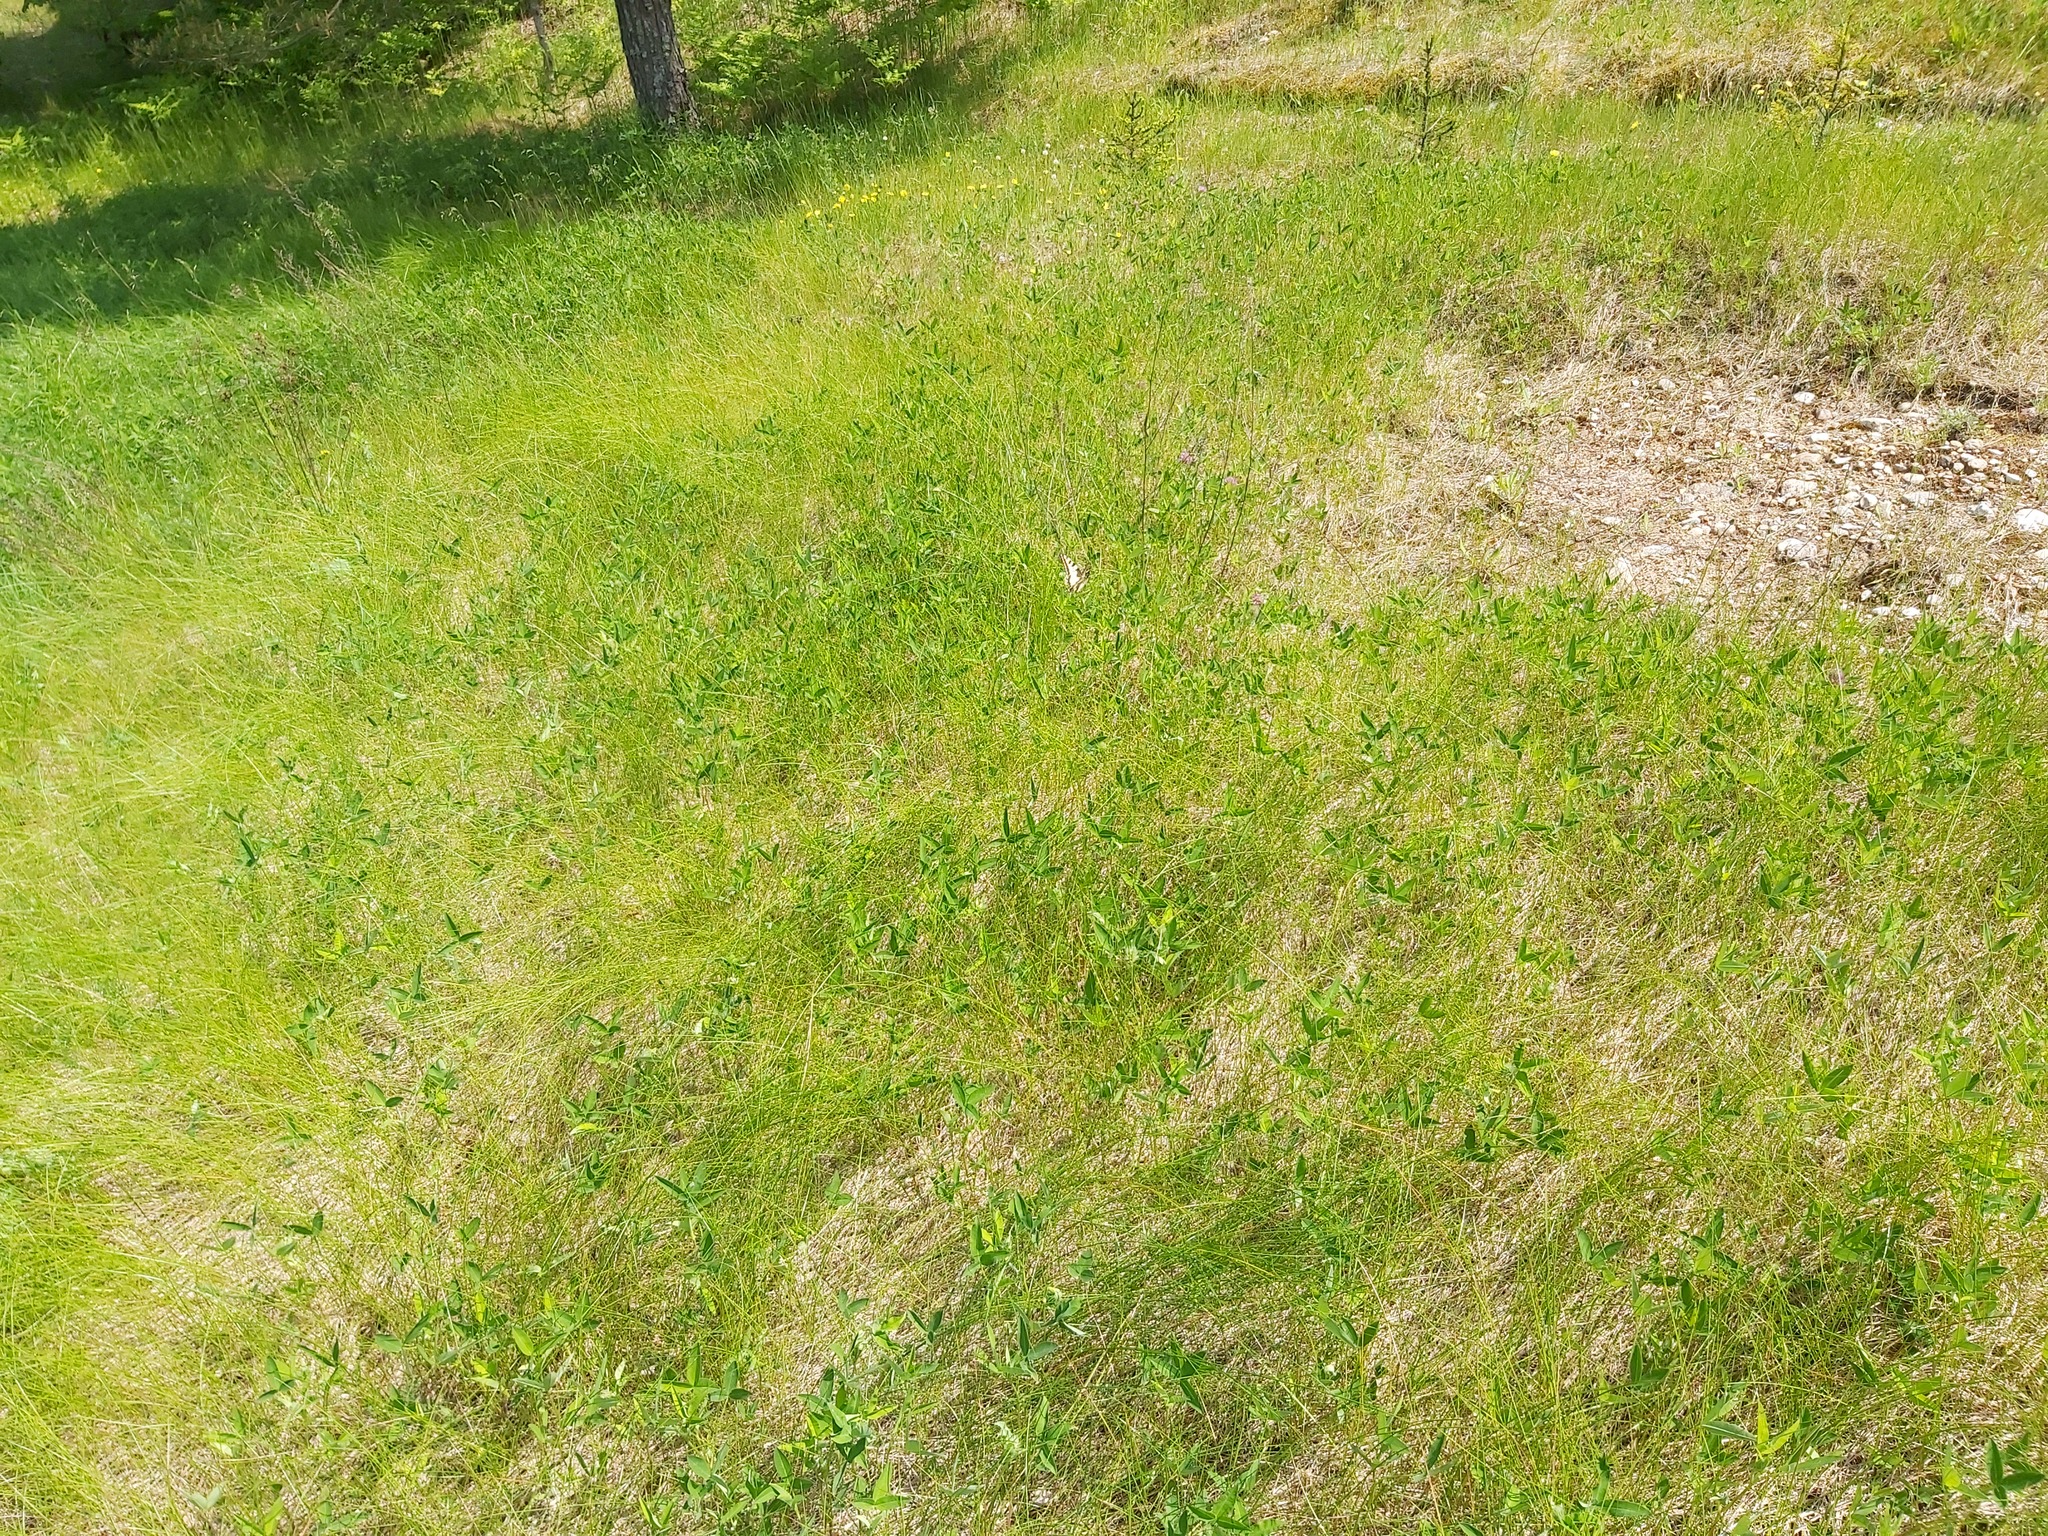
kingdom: Animalia
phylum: Arthropoda
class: Insecta
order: Lepidoptera
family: Papilionidae
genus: Papilio
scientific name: Papilio machaon
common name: Swallowtail
